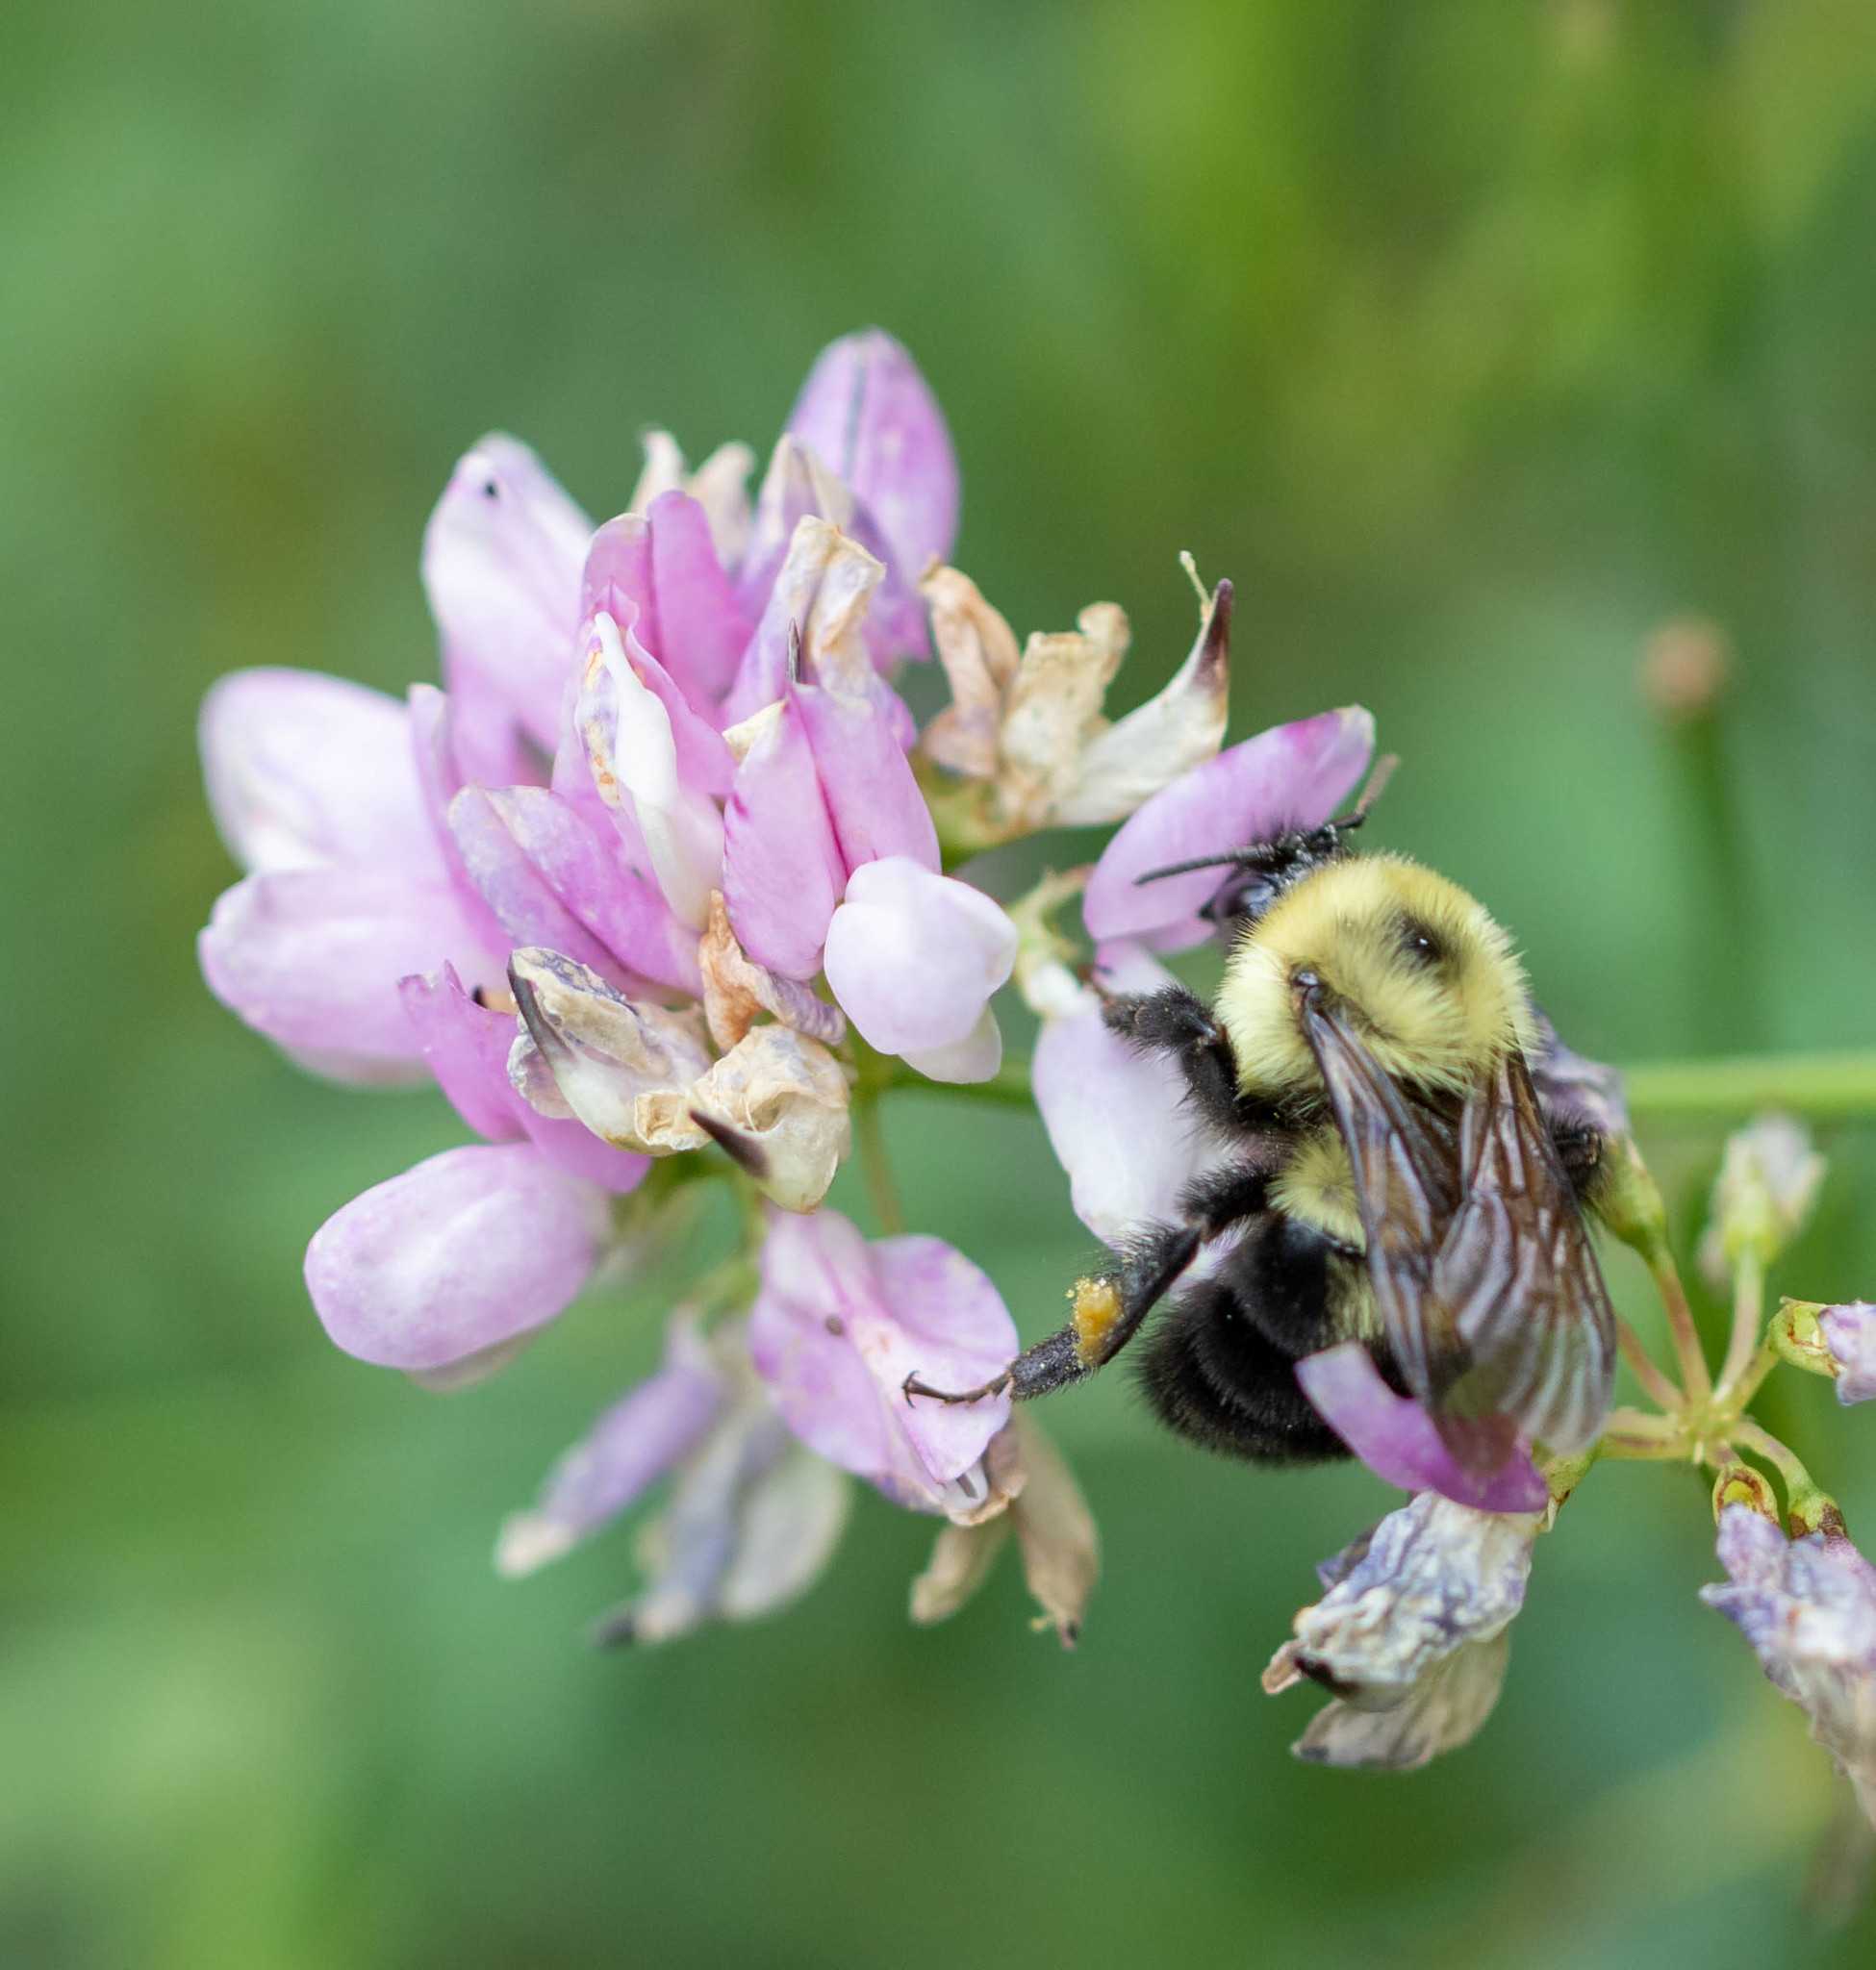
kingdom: Animalia
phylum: Arthropoda
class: Insecta
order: Hymenoptera
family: Apidae
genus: Bombus
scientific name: Bombus bimaculatus
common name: Two-spotted bumble bee
